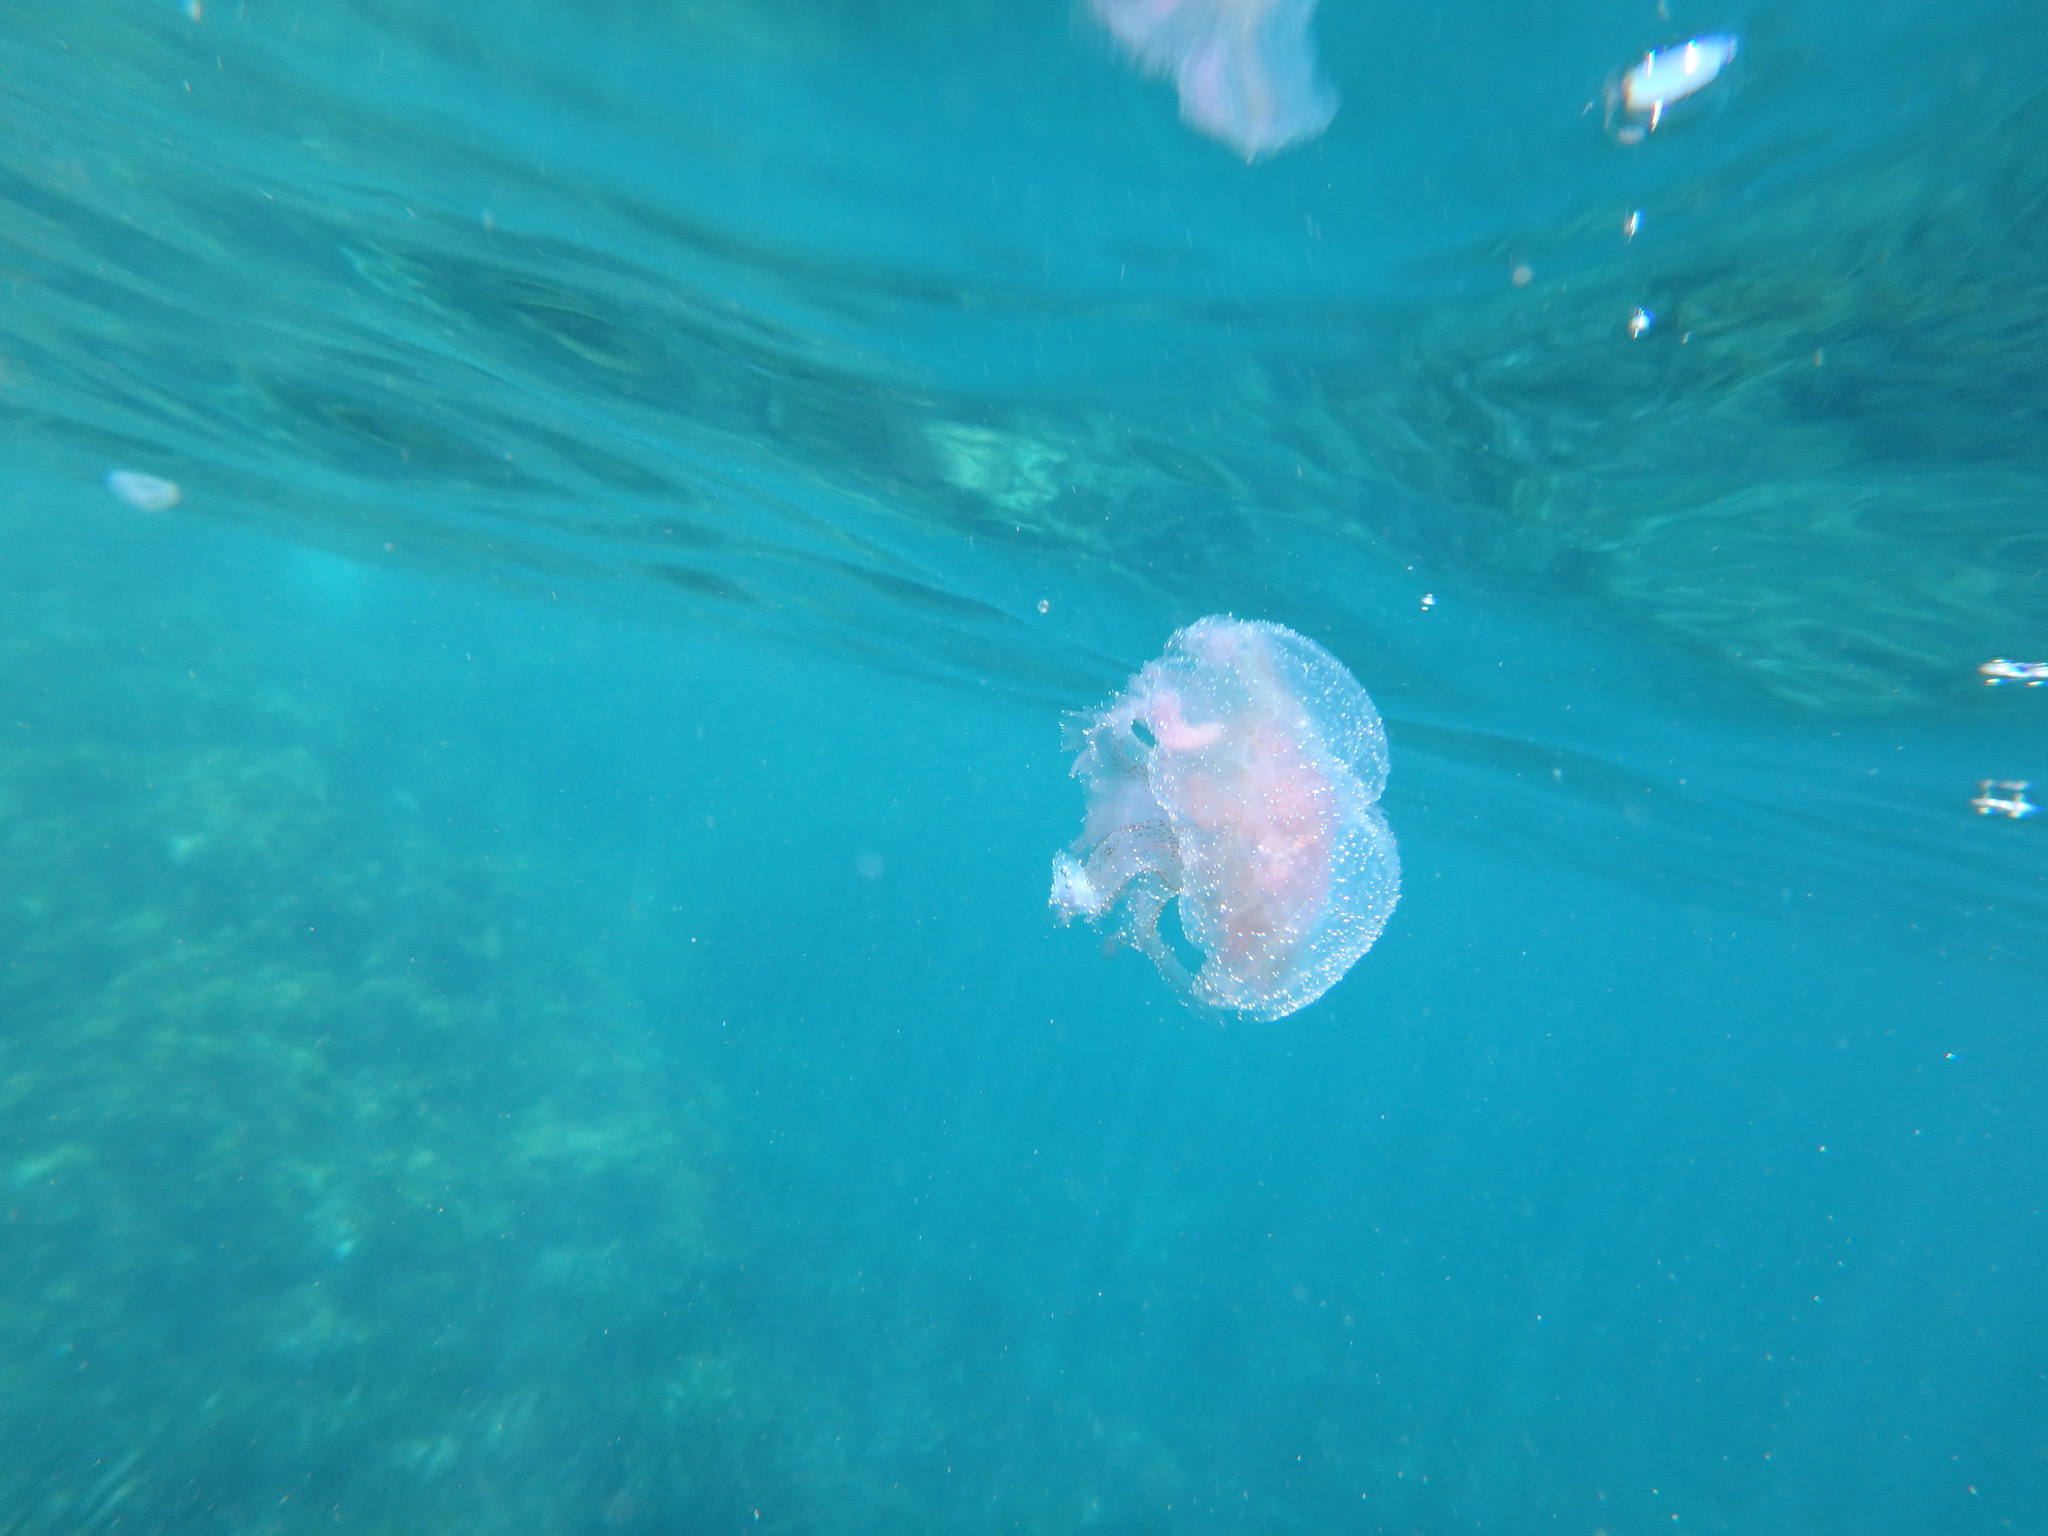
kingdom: Animalia
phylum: Cnidaria
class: Scyphozoa
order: Semaeostomeae
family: Pelagiidae
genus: Pelagia
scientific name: Pelagia noctiluca
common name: Mauve stinger
